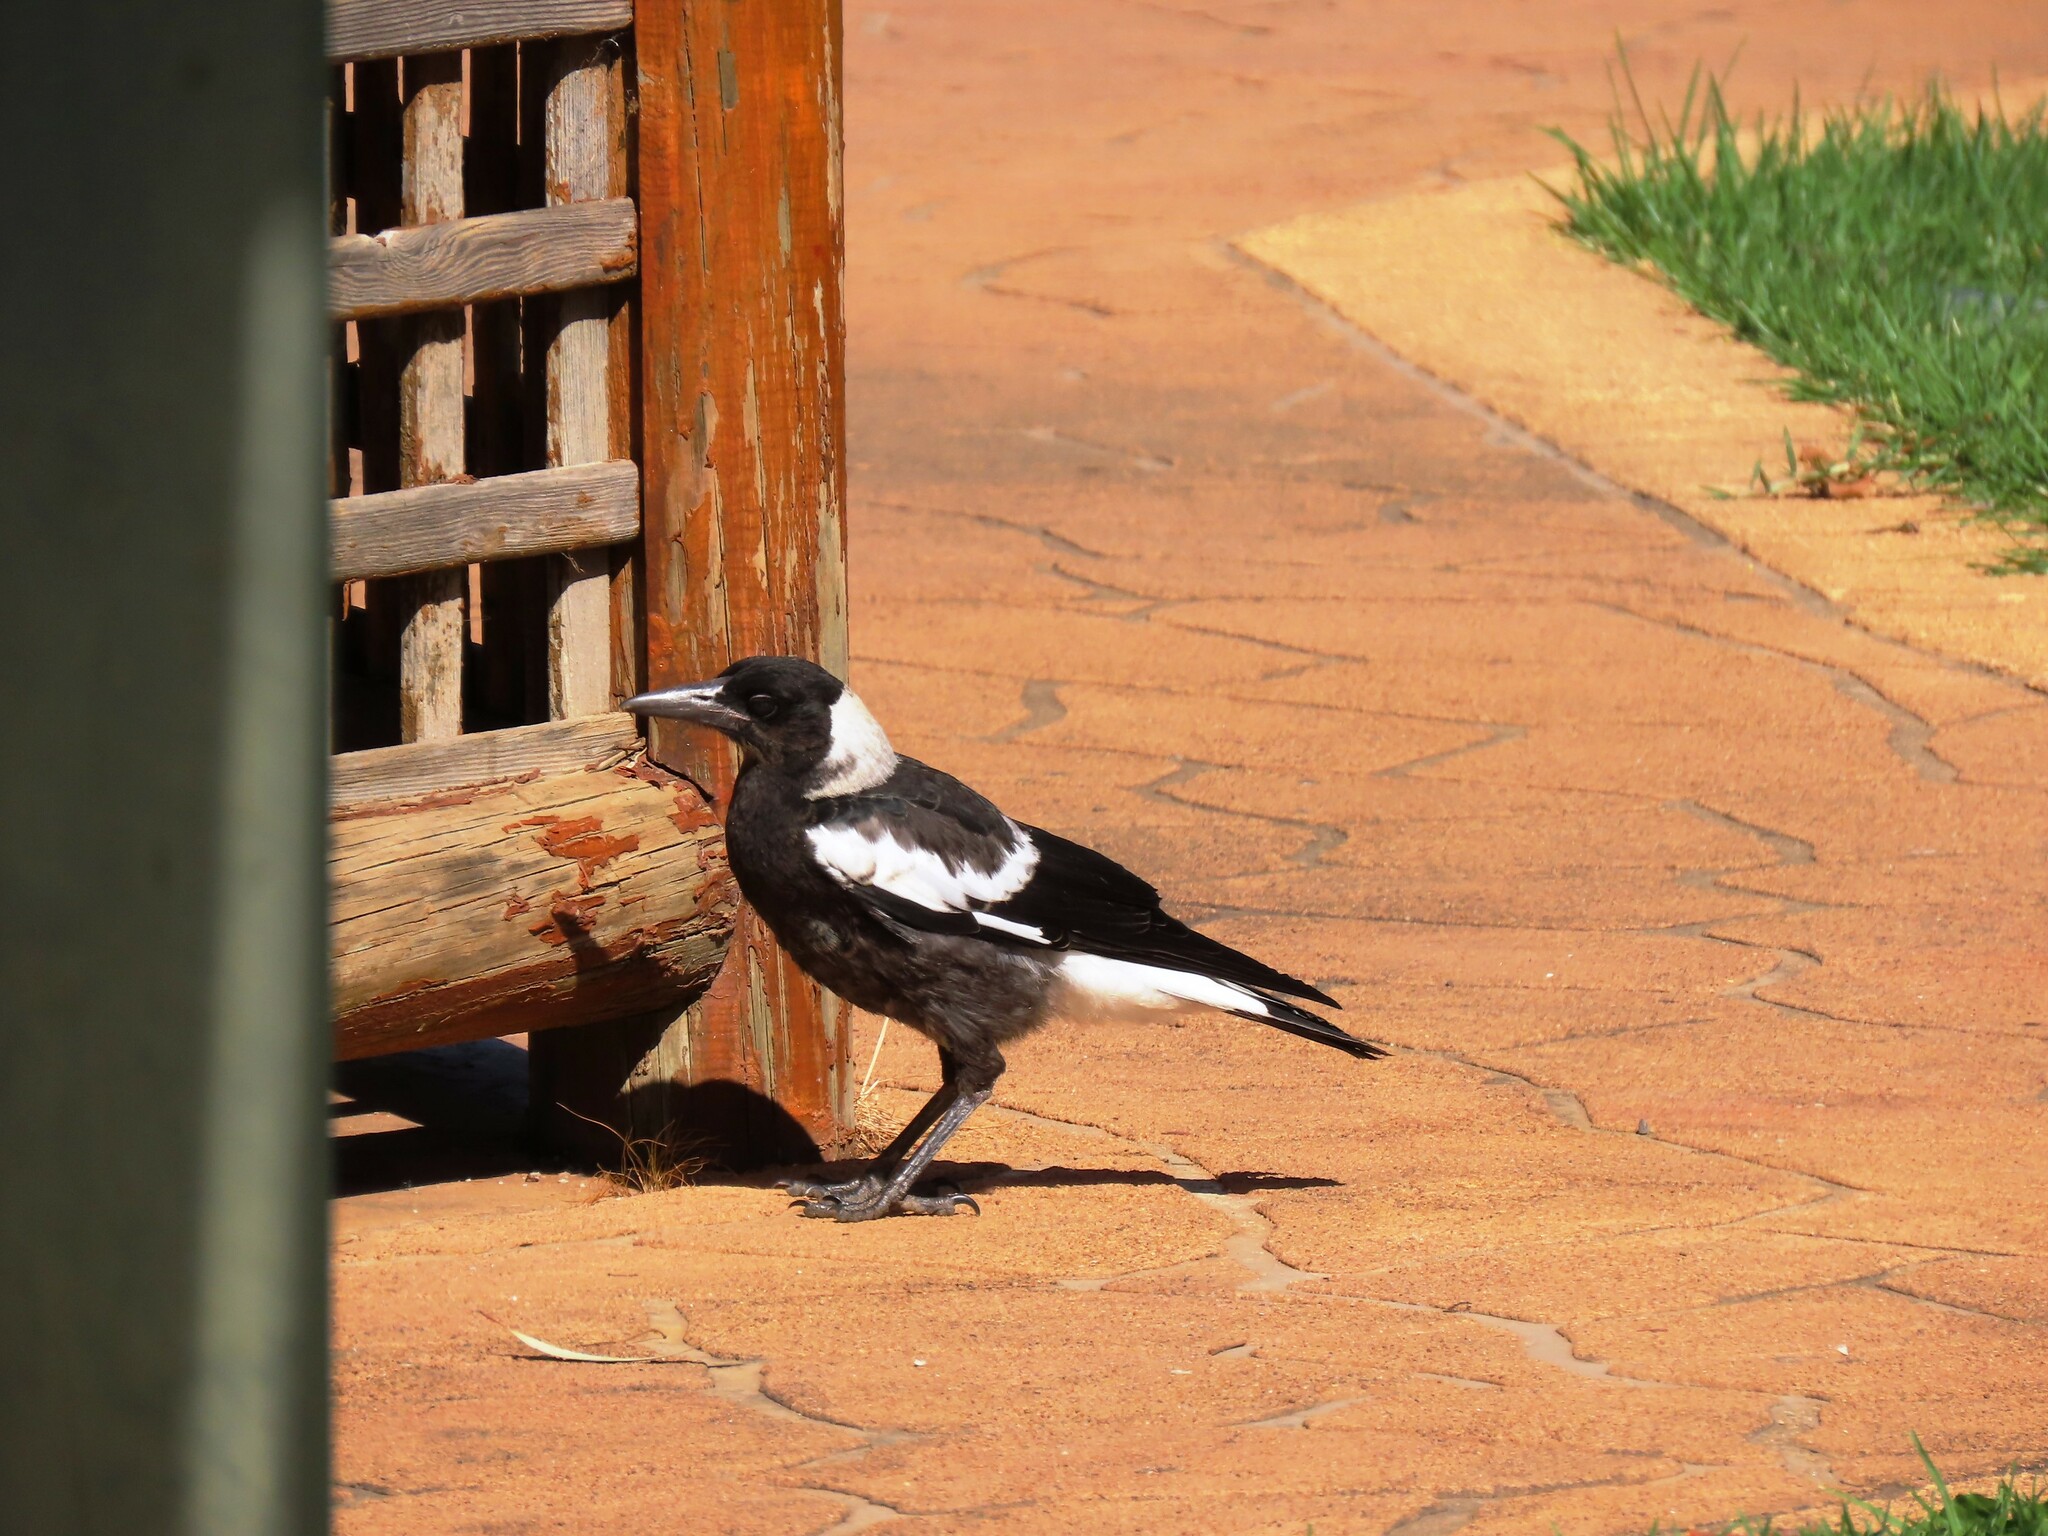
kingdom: Animalia
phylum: Chordata
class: Aves
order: Passeriformes
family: Cracticidae
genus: Gymnorhina
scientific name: Gymnorhina tibicen
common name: Australian magpie
